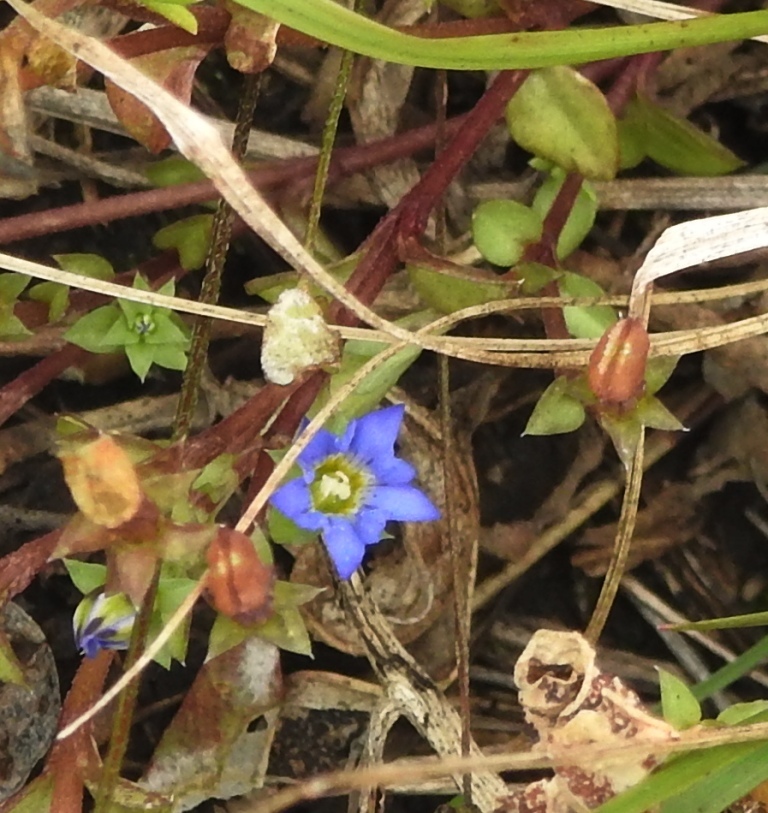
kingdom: Plantae
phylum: Tracheophyta
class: Magnoliopsida
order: Gentianales
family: Gentianaceae
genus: Gentiana
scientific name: Gentiana squarrosa
